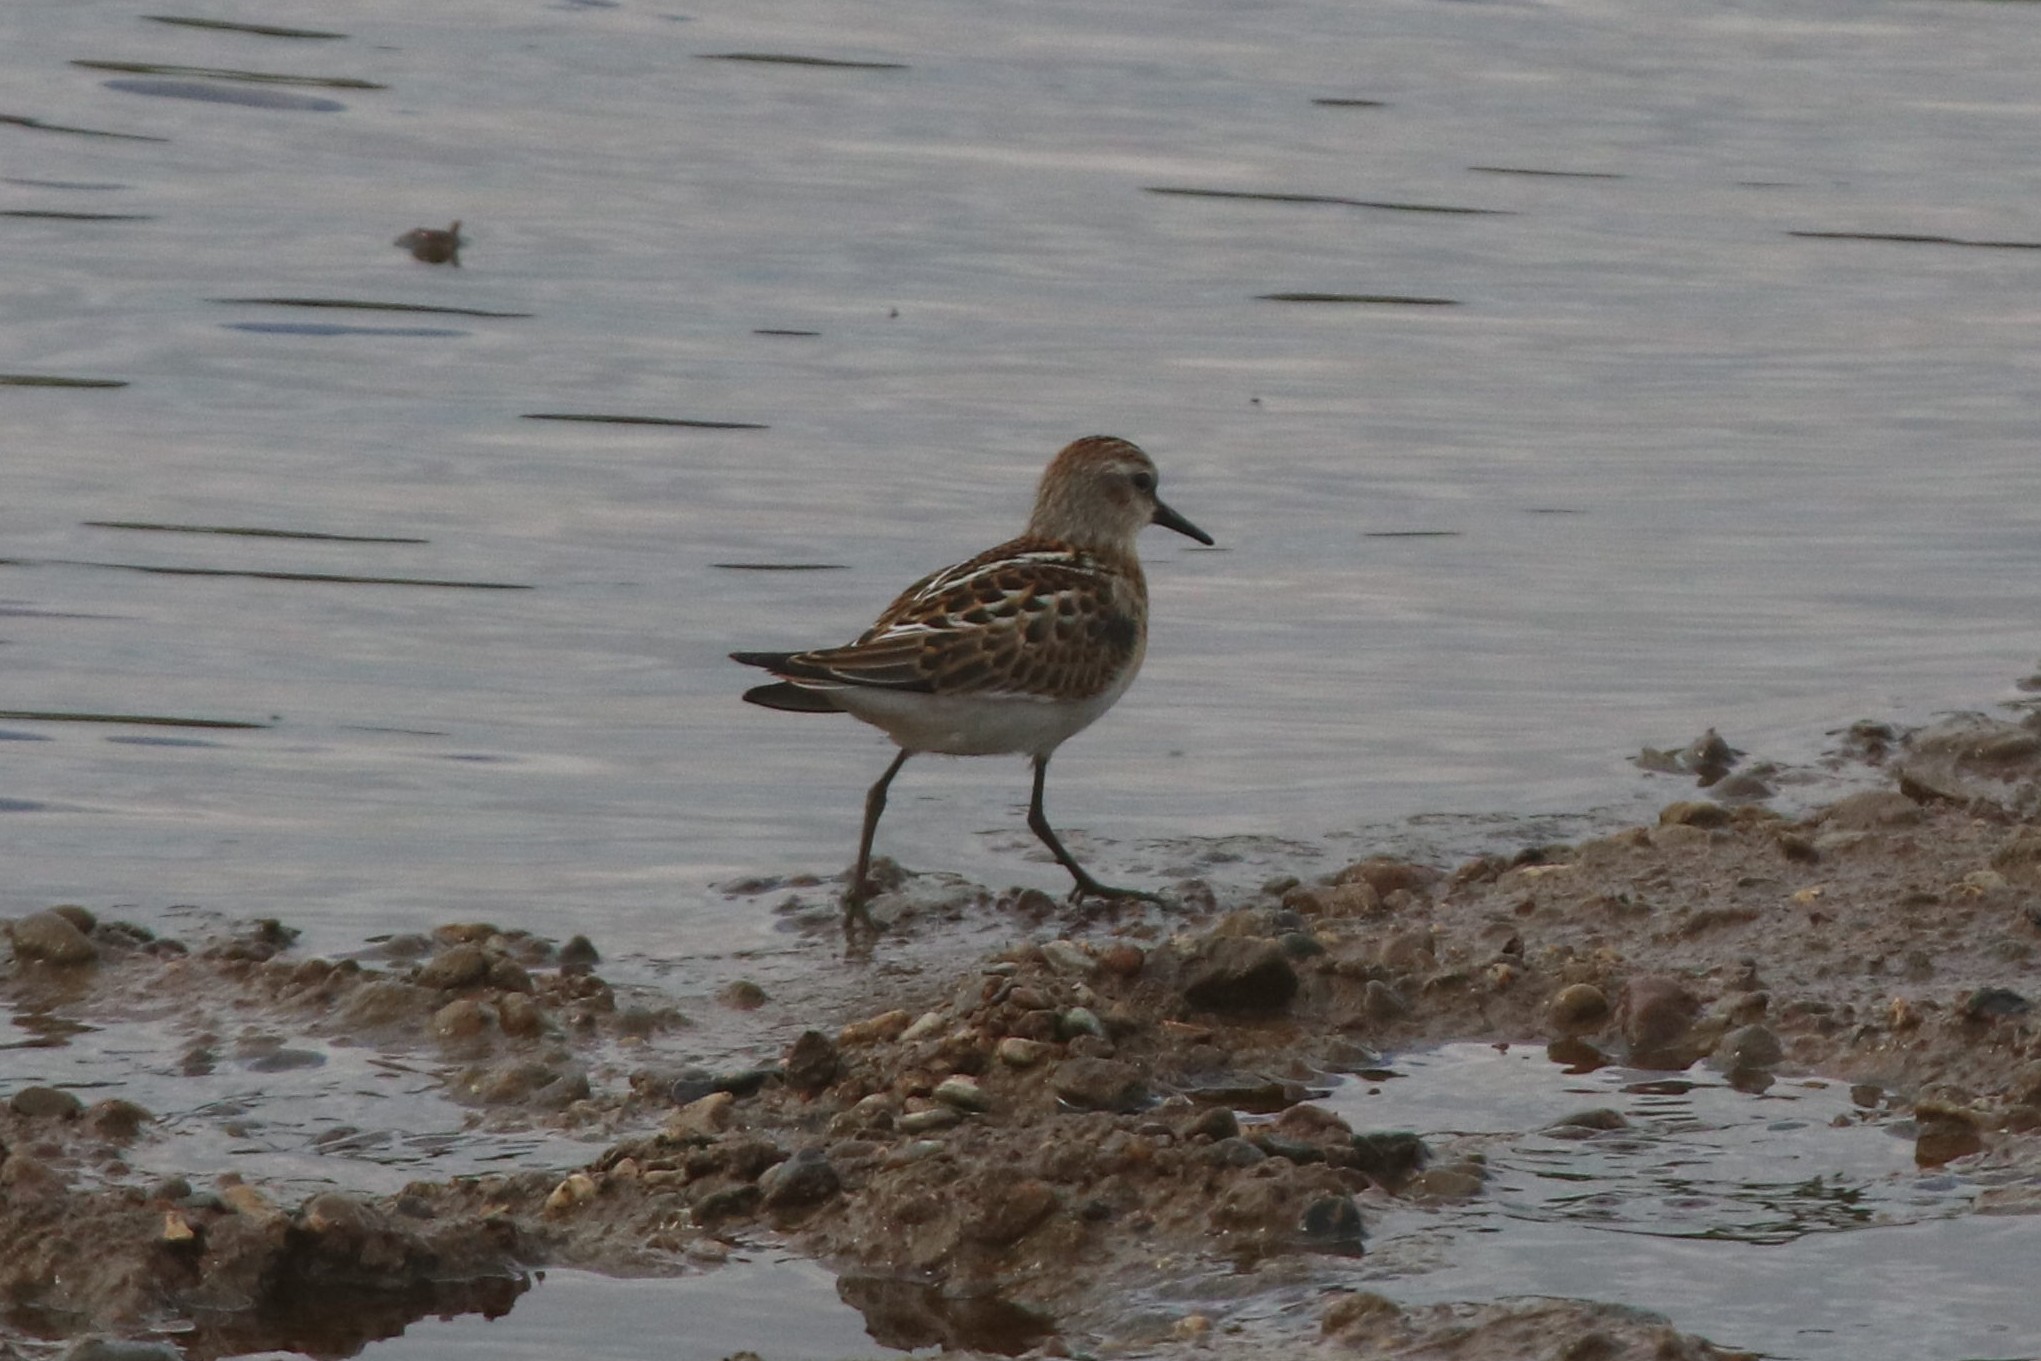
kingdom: Animalia
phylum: Chordata
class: Aves
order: Charadriiformes
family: Scolopacidae
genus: Calidris
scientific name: Calidris minuta
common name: Little stint
